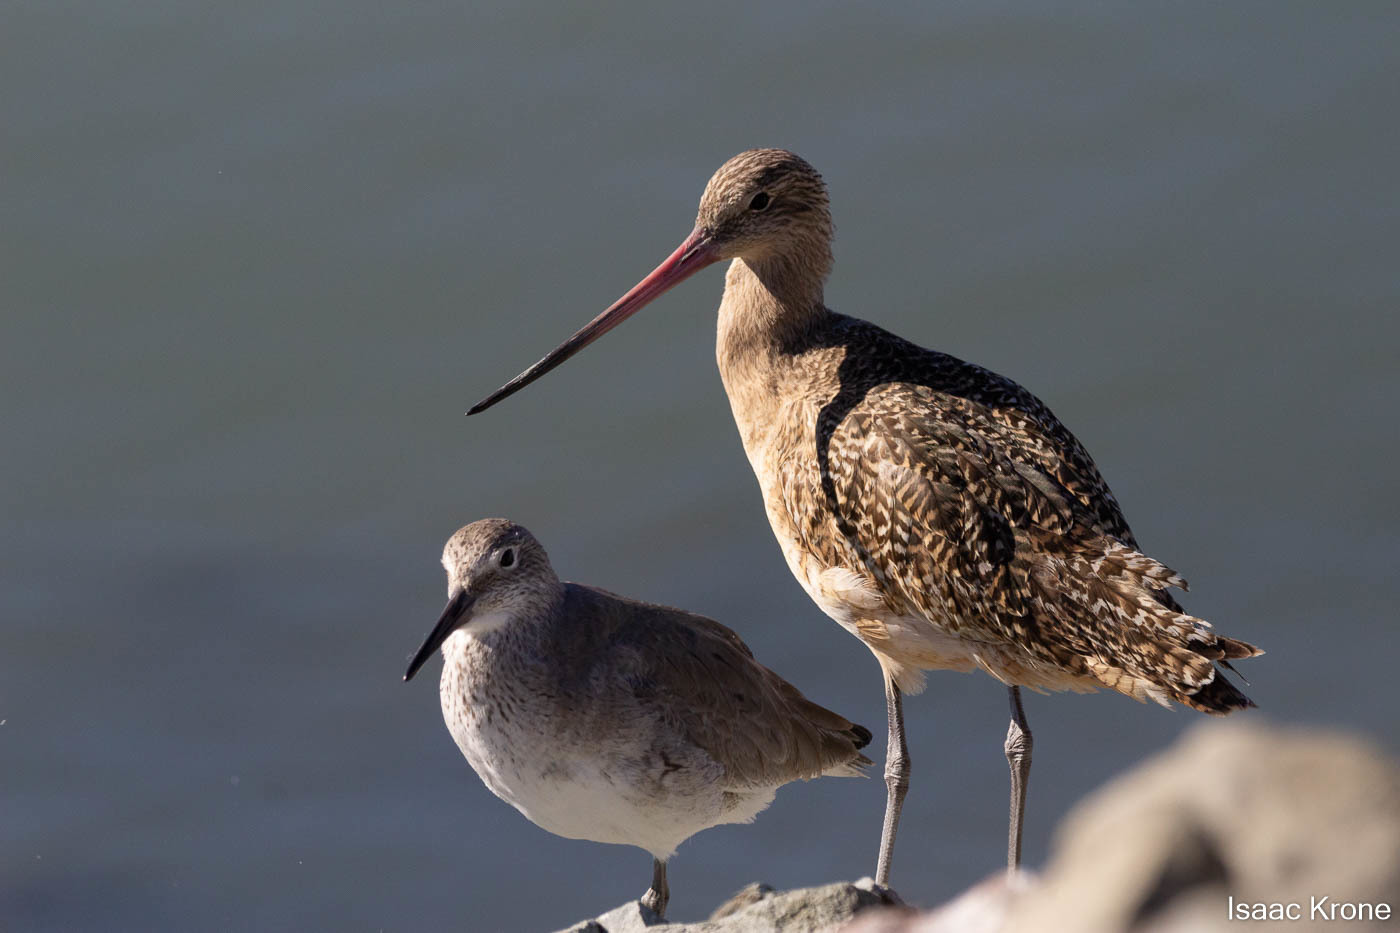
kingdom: Animalia
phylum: Chordata
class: Aves
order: Charadriiformes
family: Scolopacidae
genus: Limosa
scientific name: Limosa fedoa
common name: Marbled godwit
